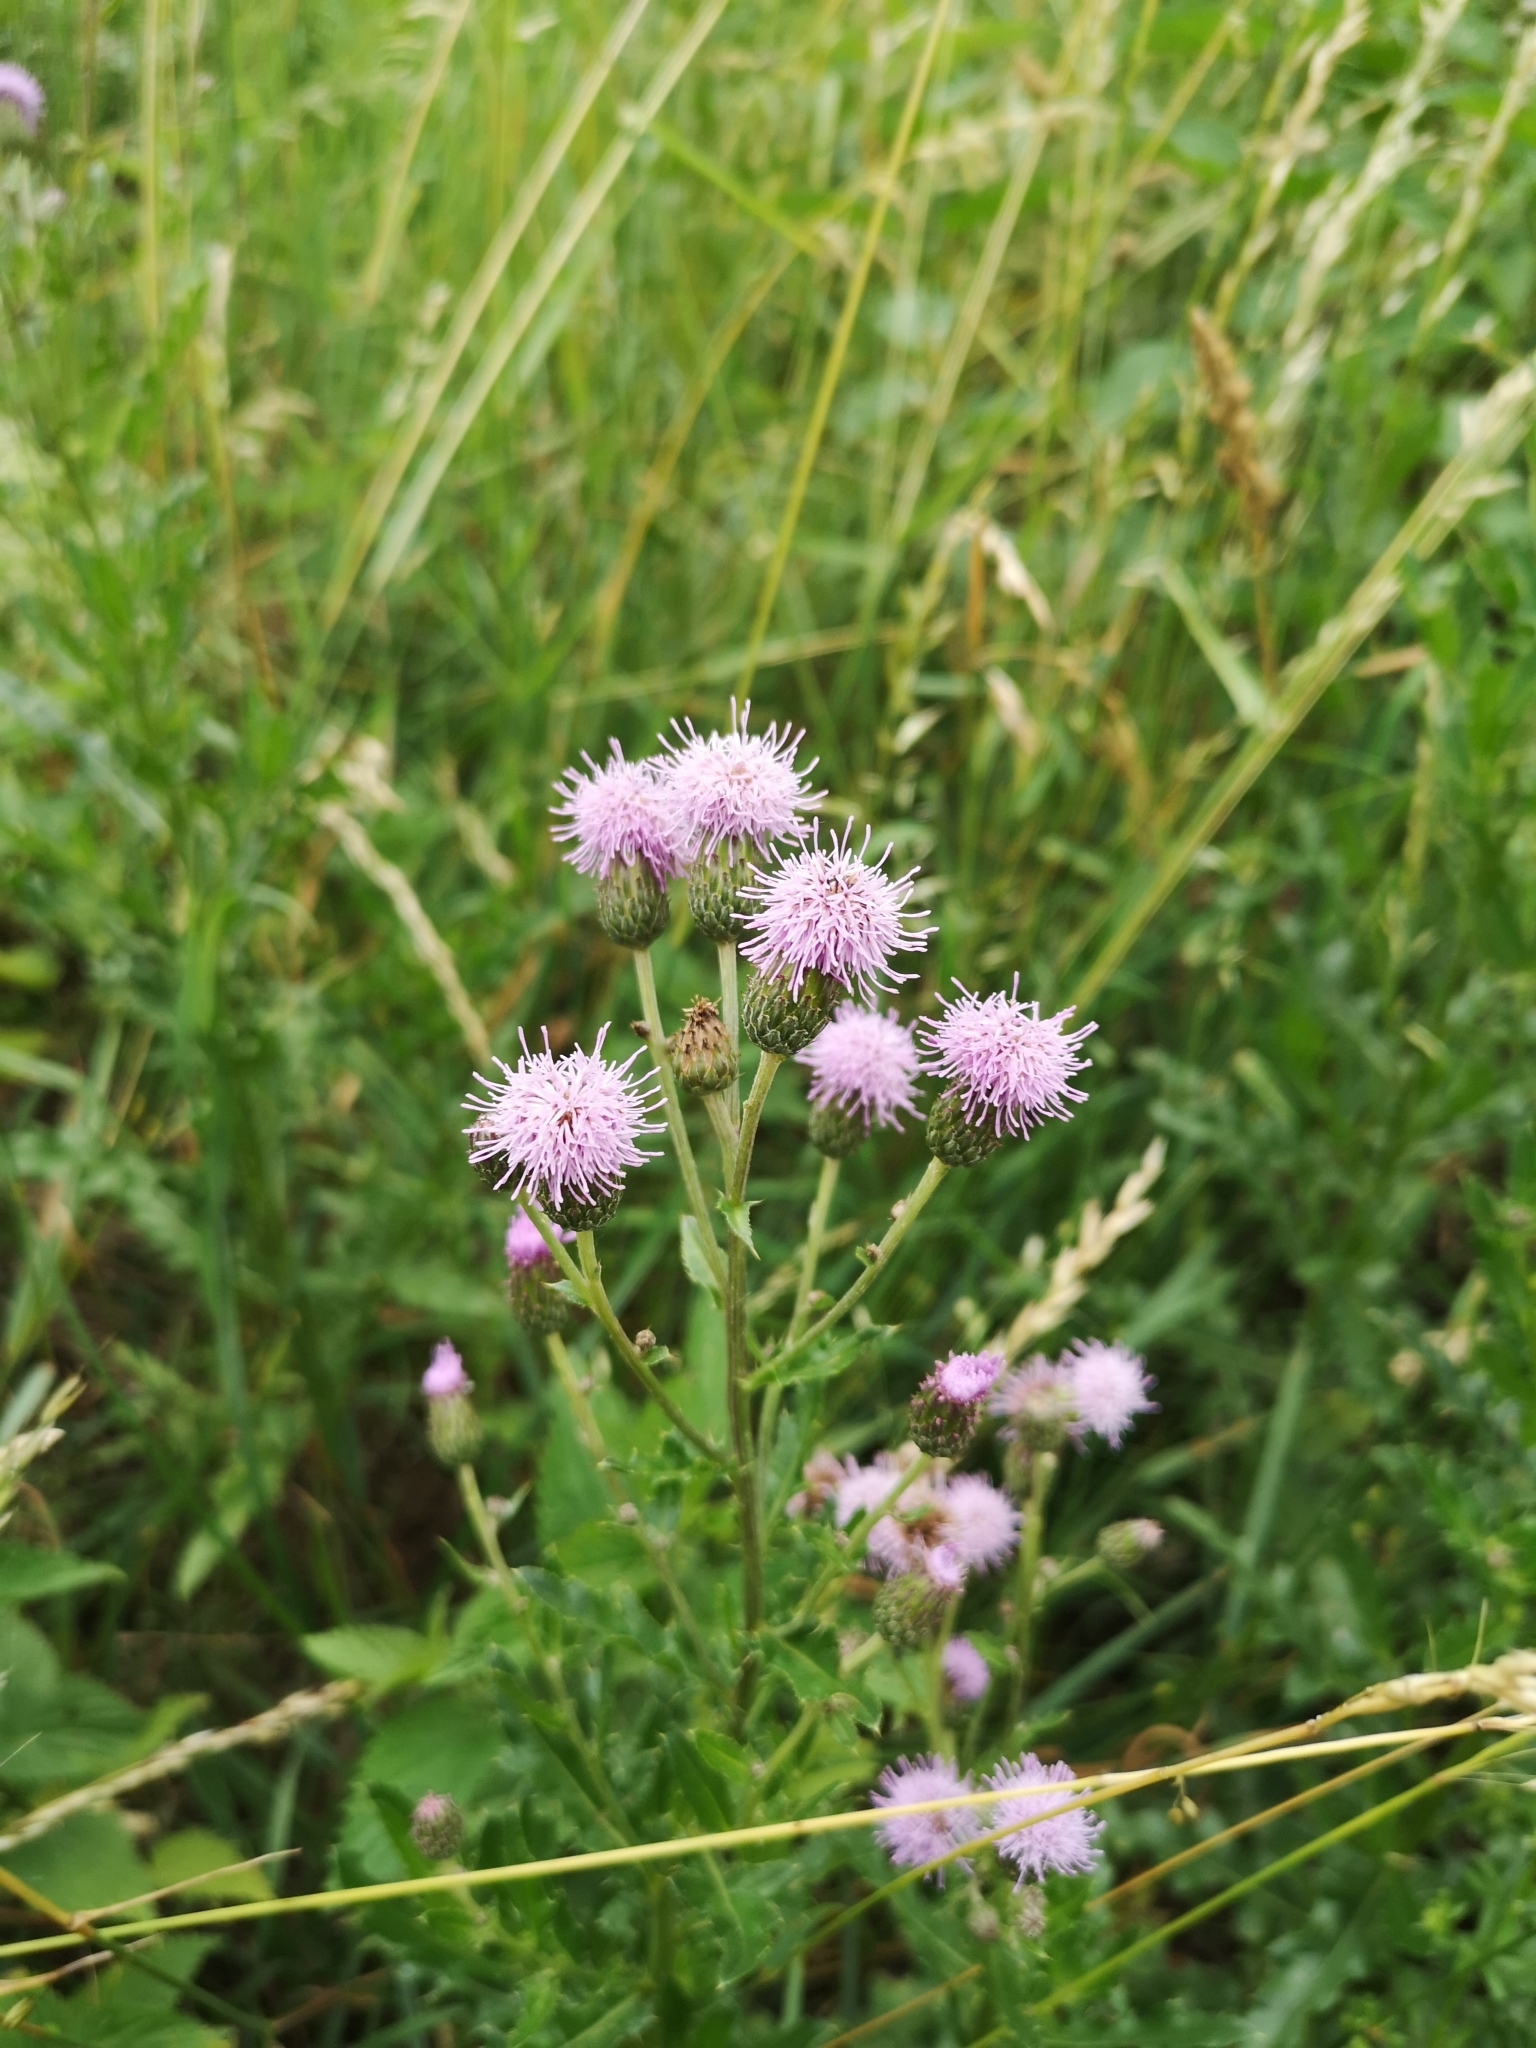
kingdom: Plantae
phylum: Tracheophyta
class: Magnoliopsida
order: Asterales
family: Asteraceae
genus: Cirsium
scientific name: Cirsium arvense
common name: Creeping thistle
